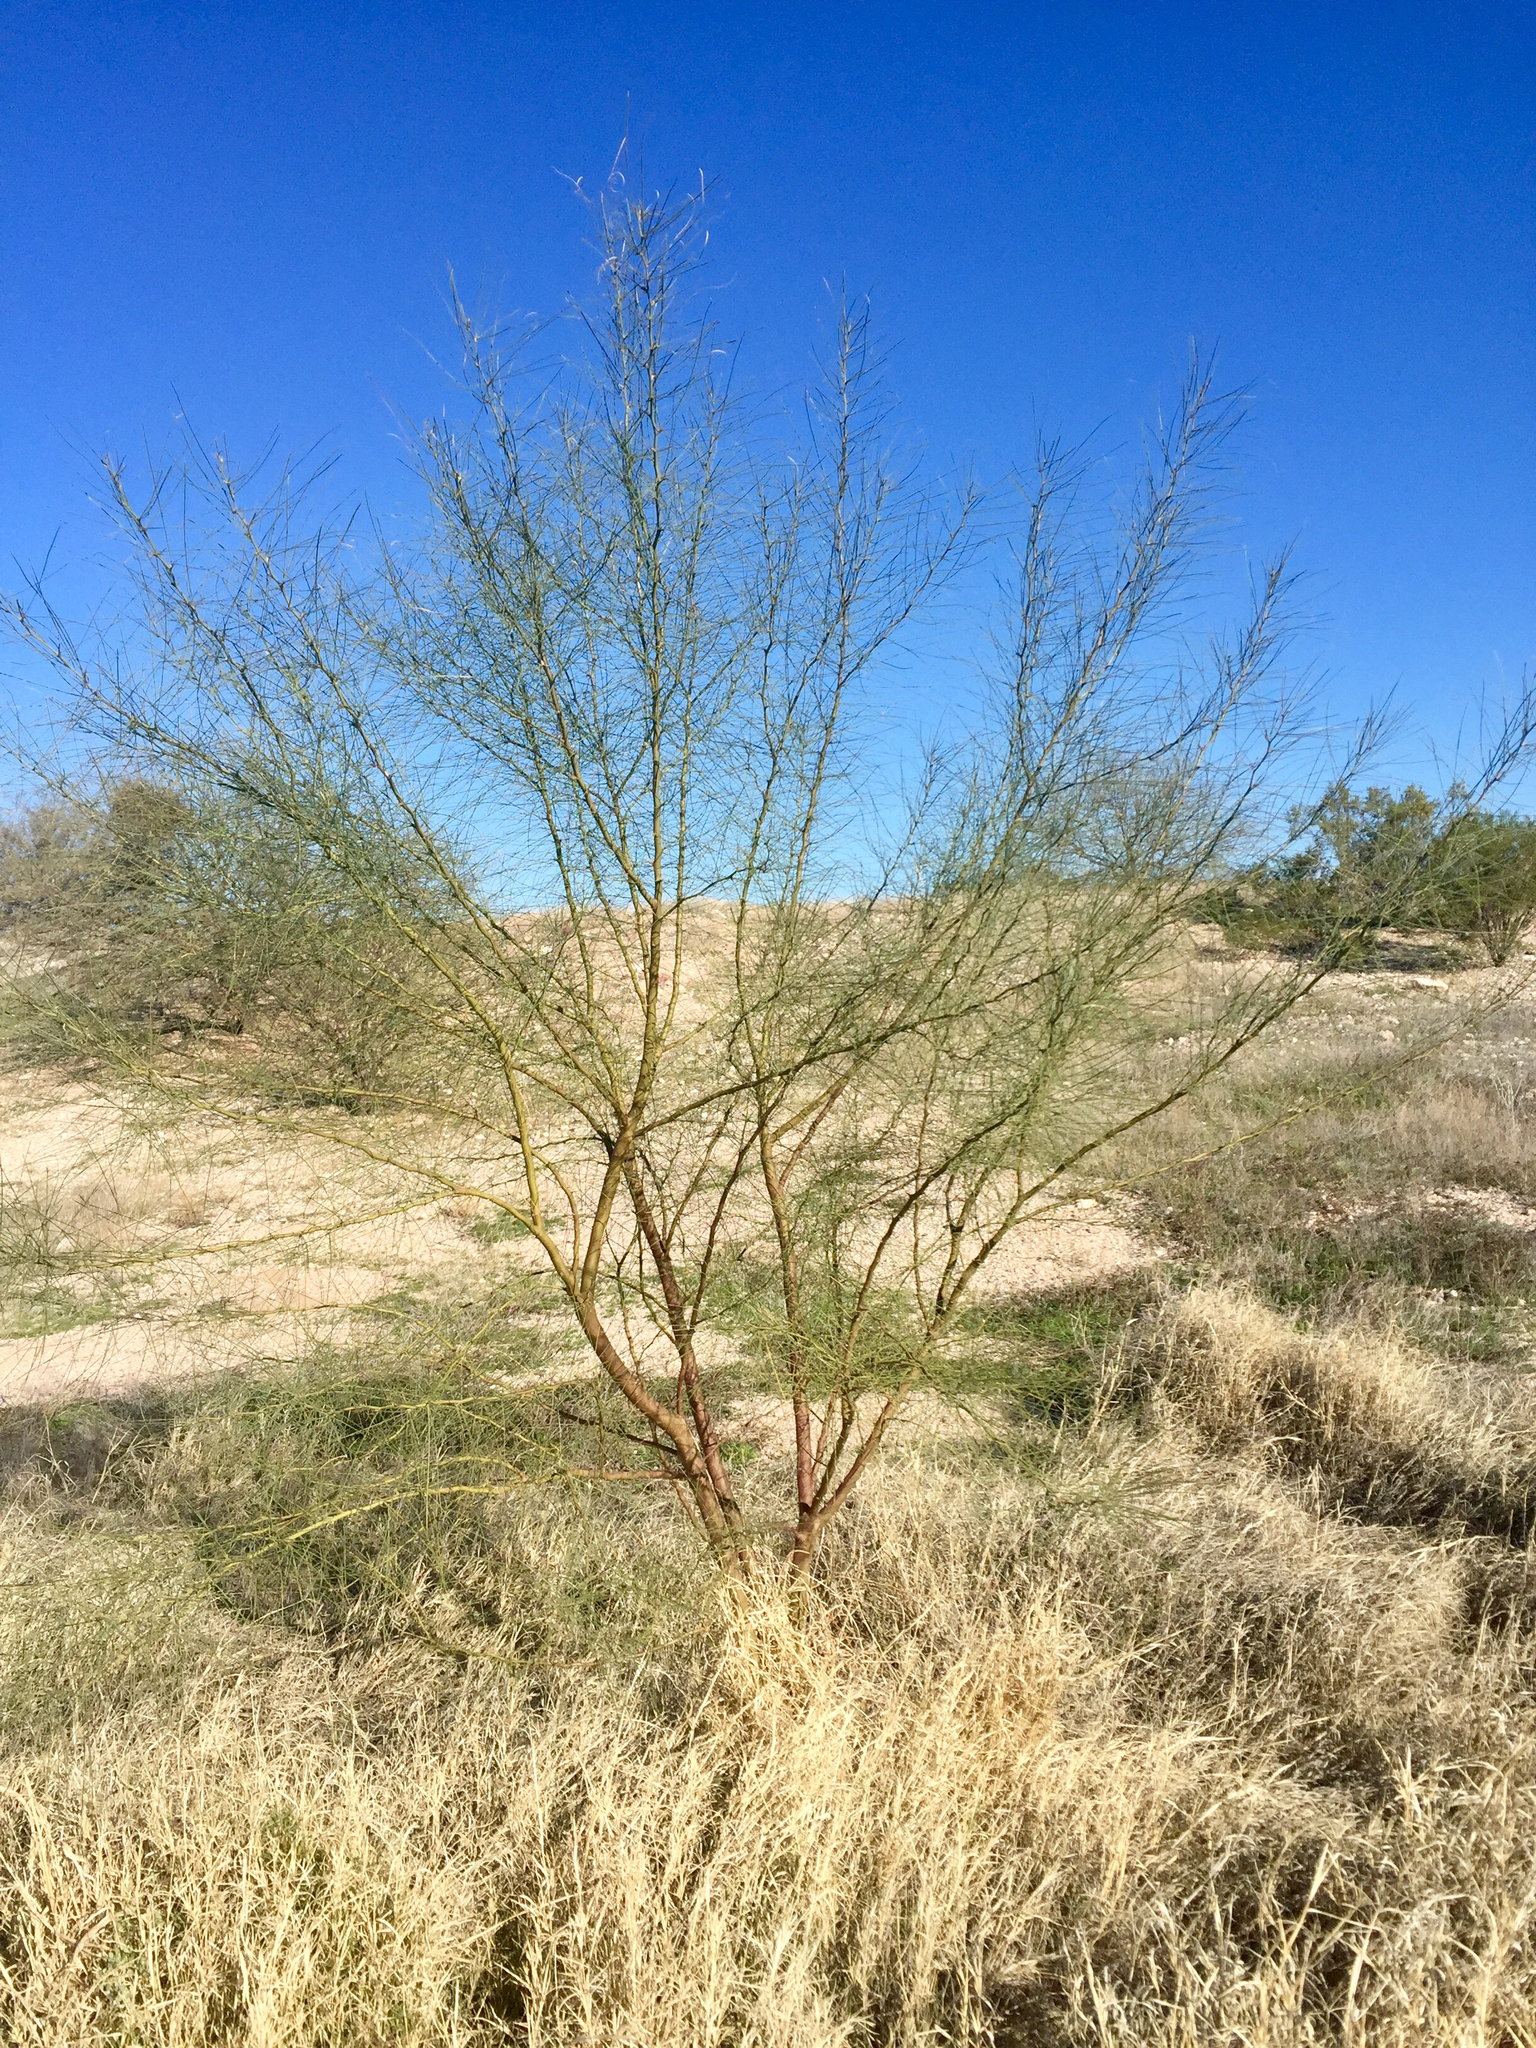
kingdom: Plantae
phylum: Tracheophyta
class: Magnoliopsida
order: Fabales
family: Fabaceae
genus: Parkinsonia
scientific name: Parkinsonia aculeata
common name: Jerusalem thorn
